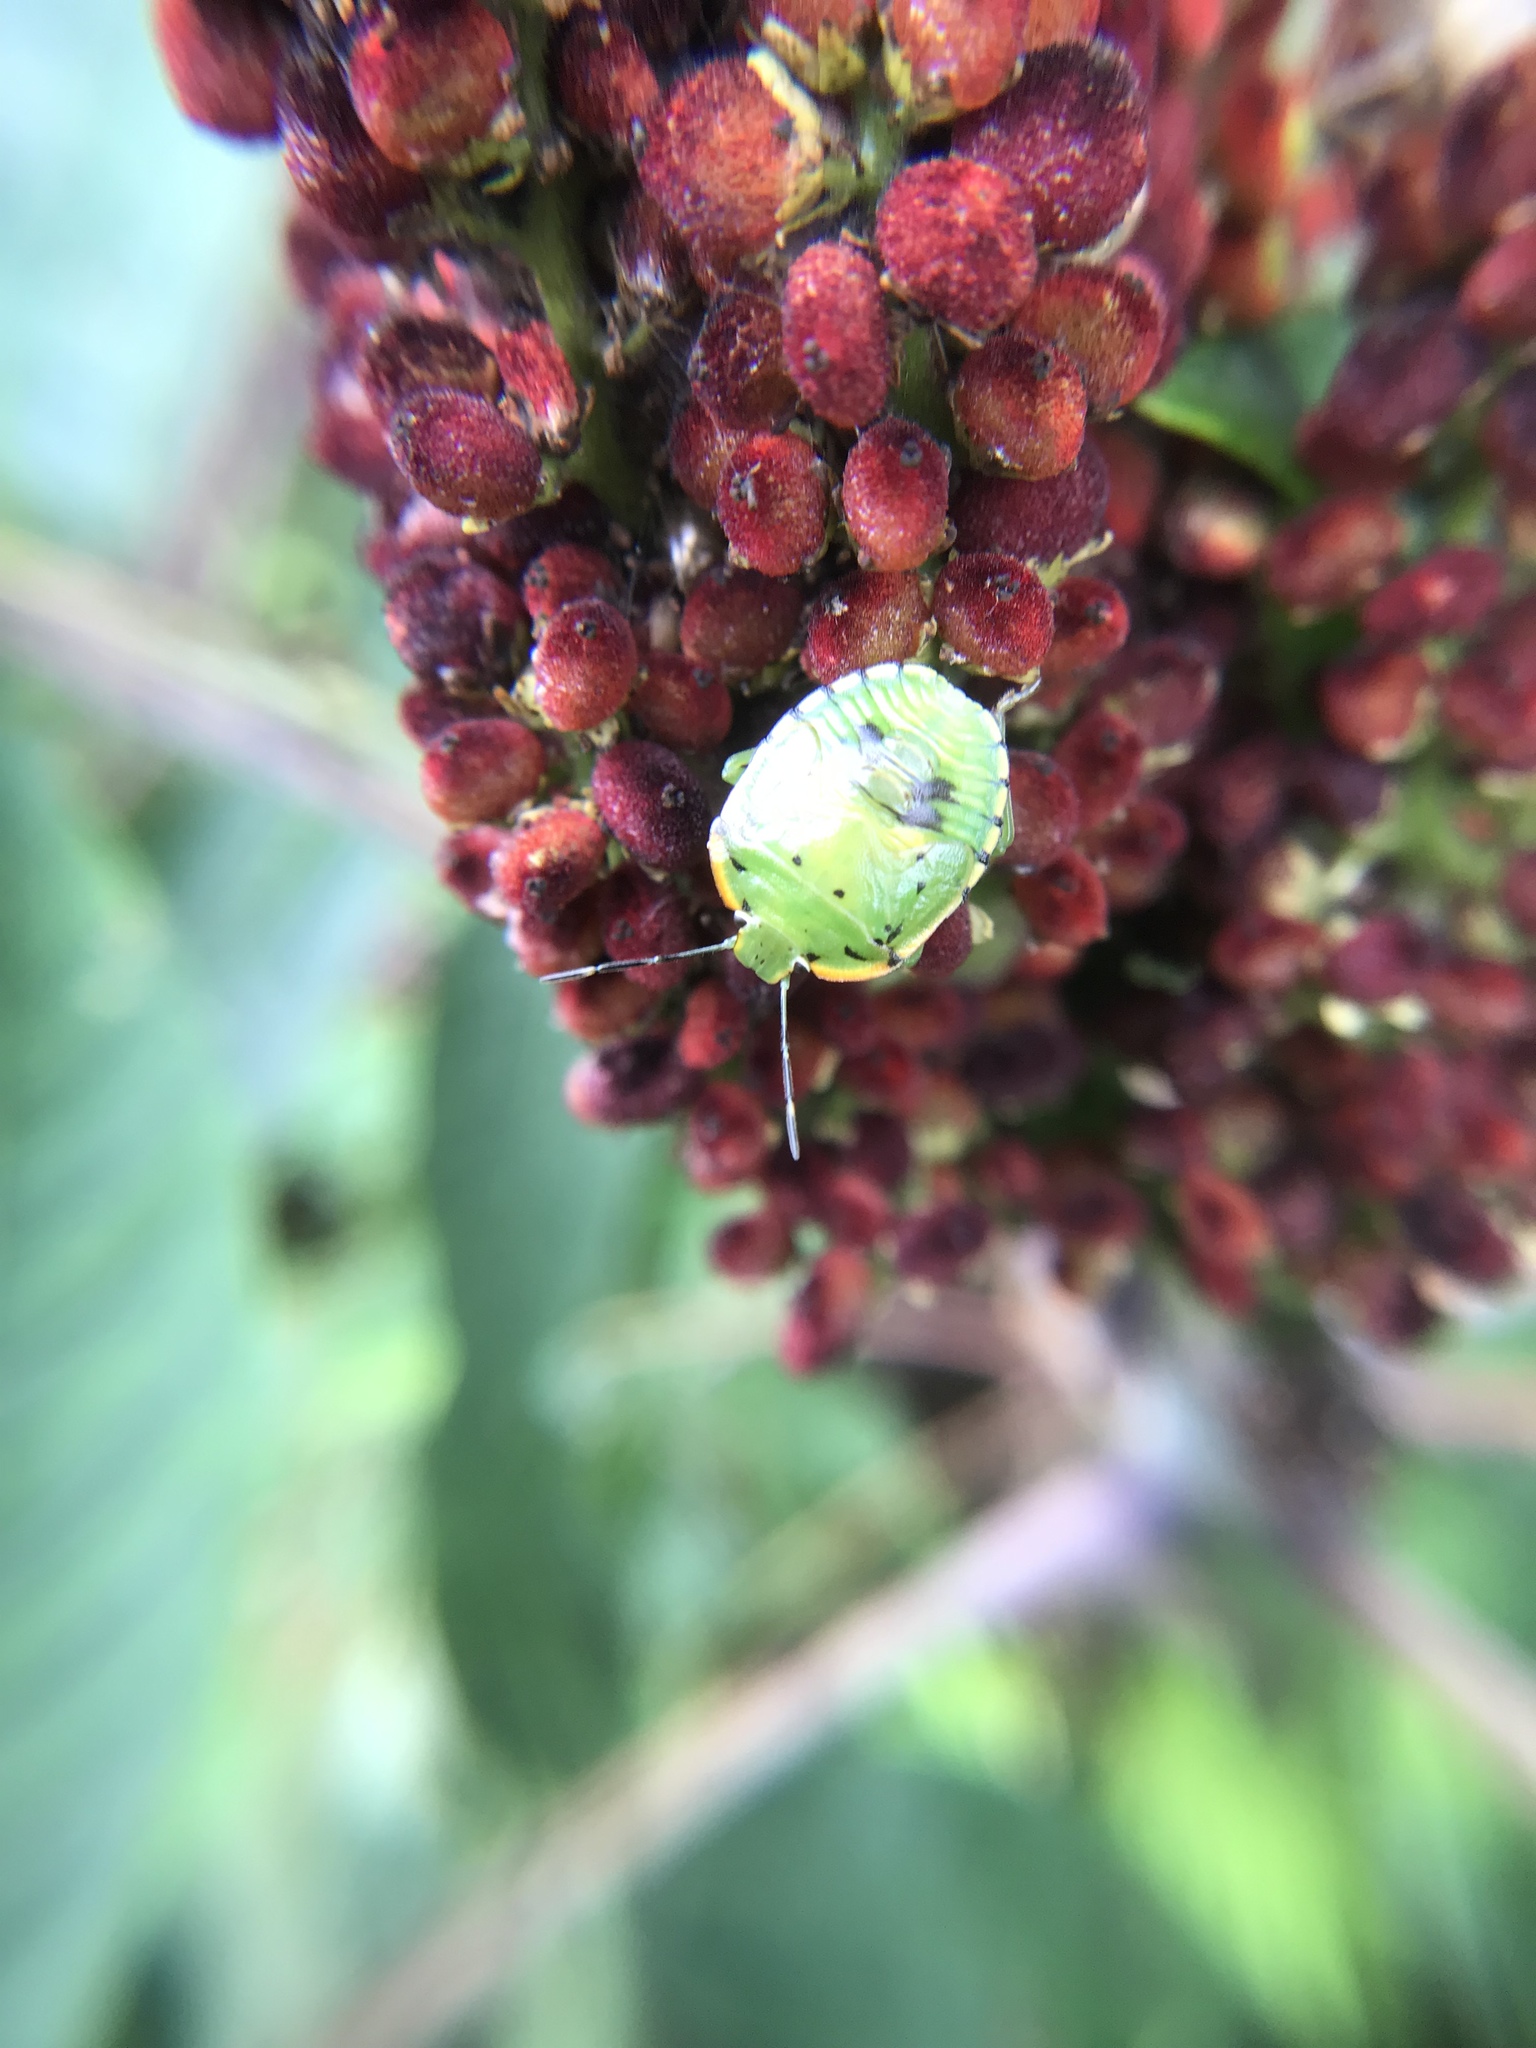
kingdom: Animalia
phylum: Arthropoda
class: Insecta
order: Hemiptera
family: Pentatomidae
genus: Chinavia
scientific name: Chinavia hilaris
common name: Green stink bug
